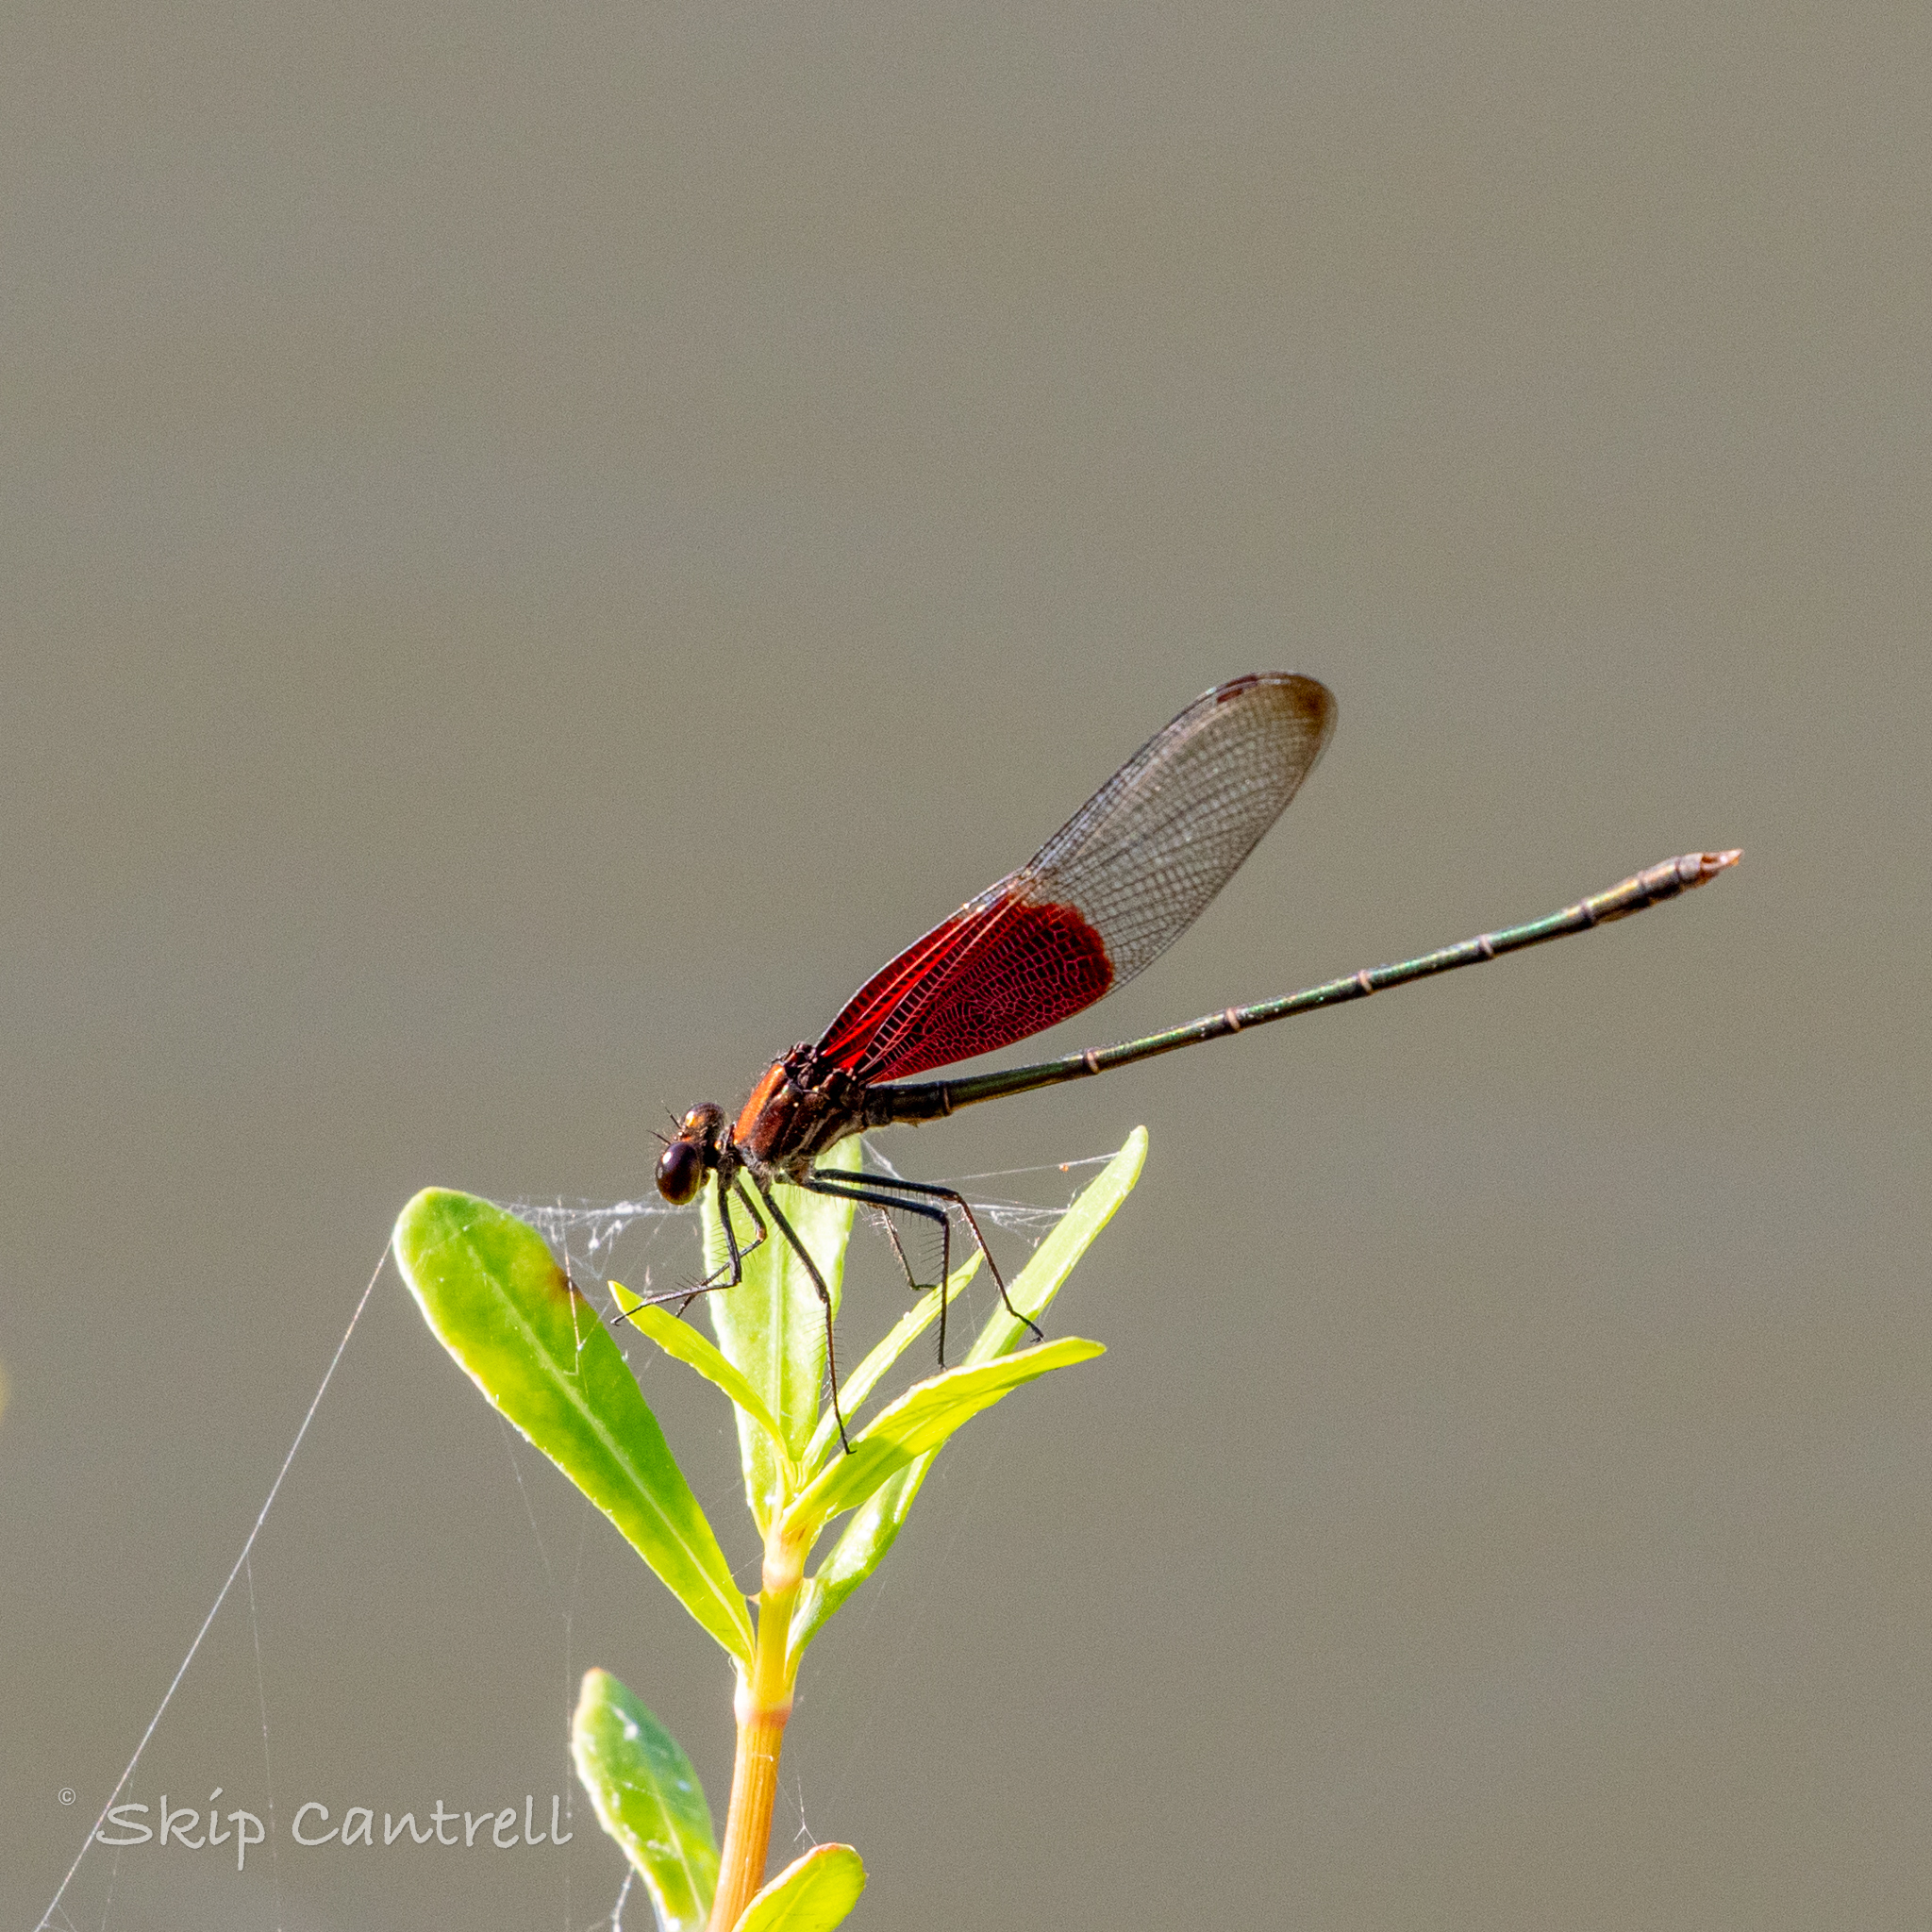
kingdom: Animalia
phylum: Arthropoda
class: Insecta
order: Odonata
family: Calopterygidae
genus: Hetaerina
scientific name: Hetaerina americana
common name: American rubyspot
